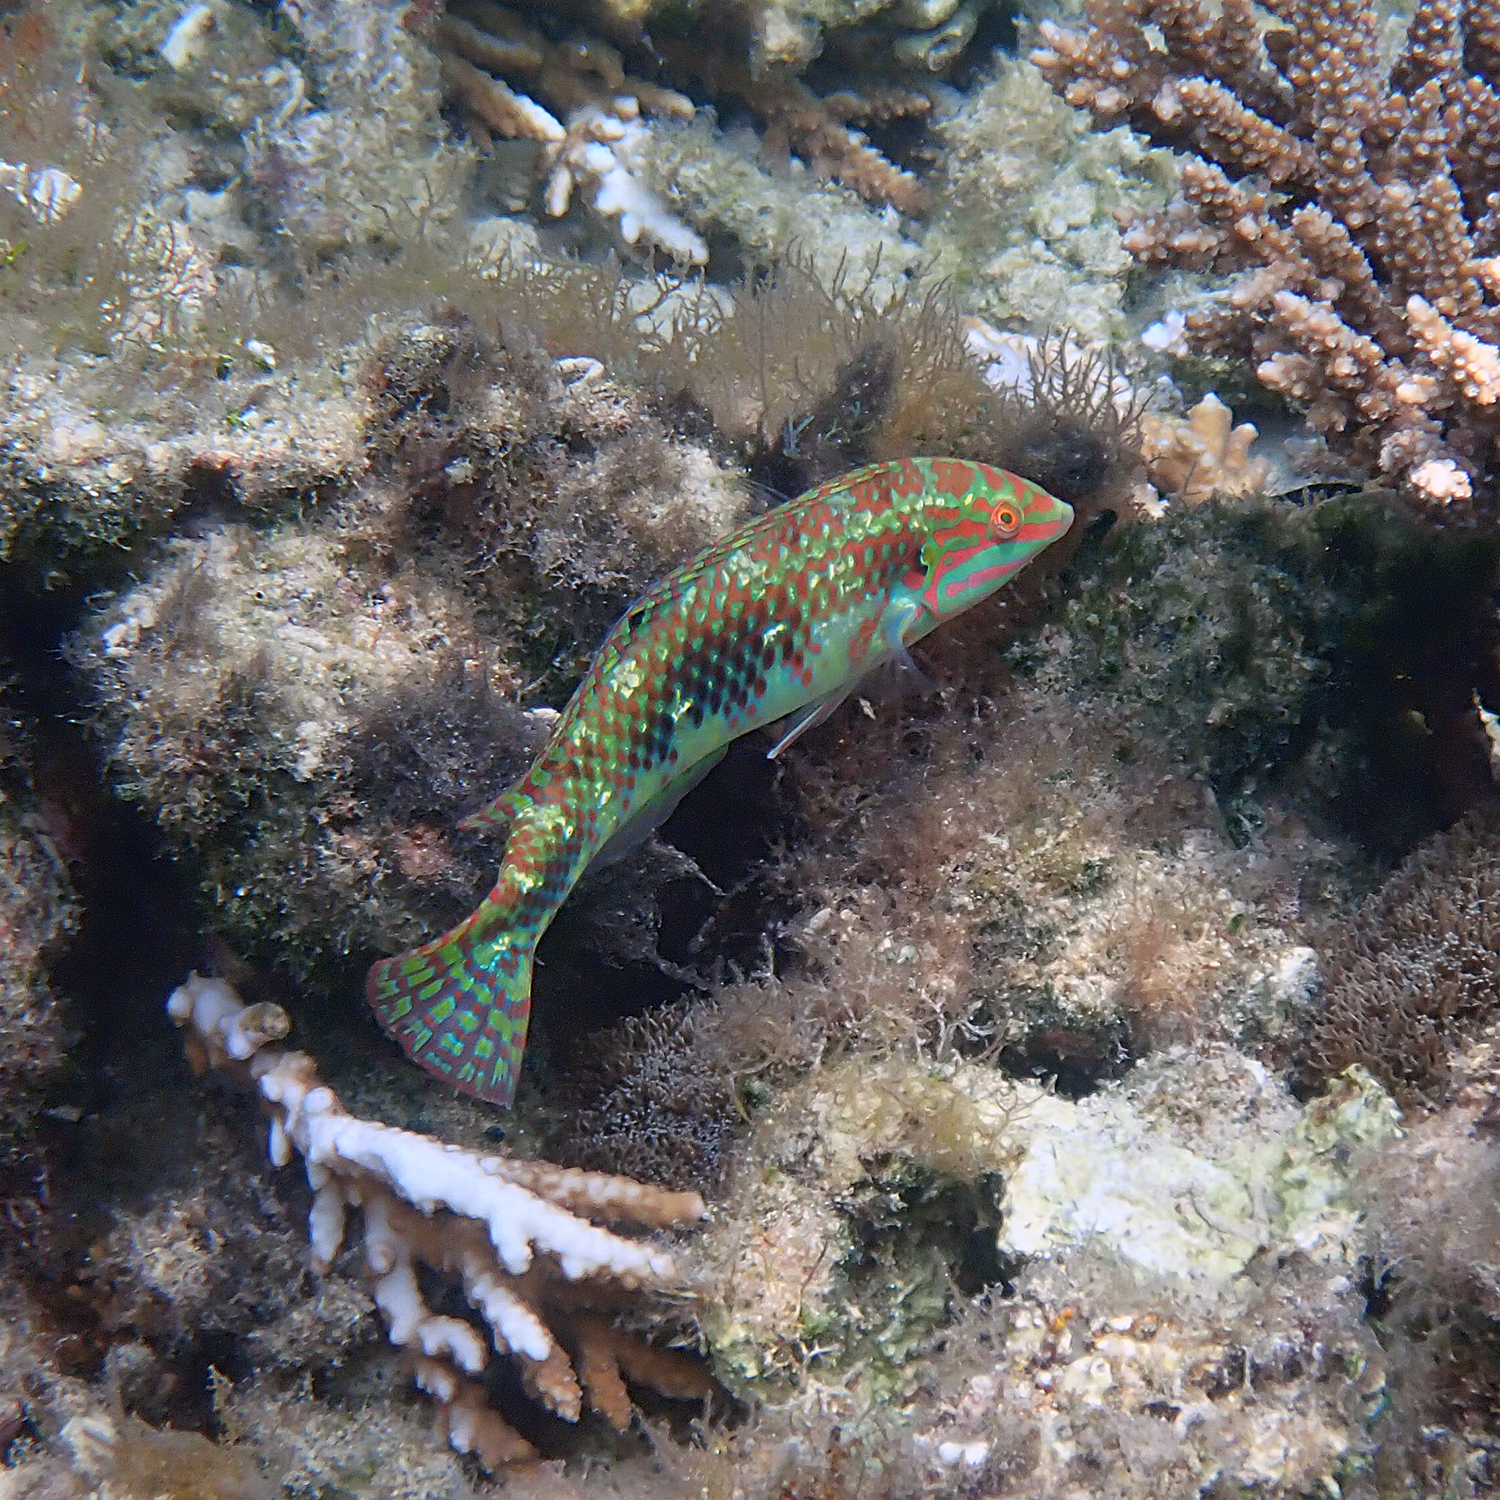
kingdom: Animalia
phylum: Chordata
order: Perciformes
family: Labridae
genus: Halichoeres
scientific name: Halichoeres margaritaceus
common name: Pink-belly wrasse
